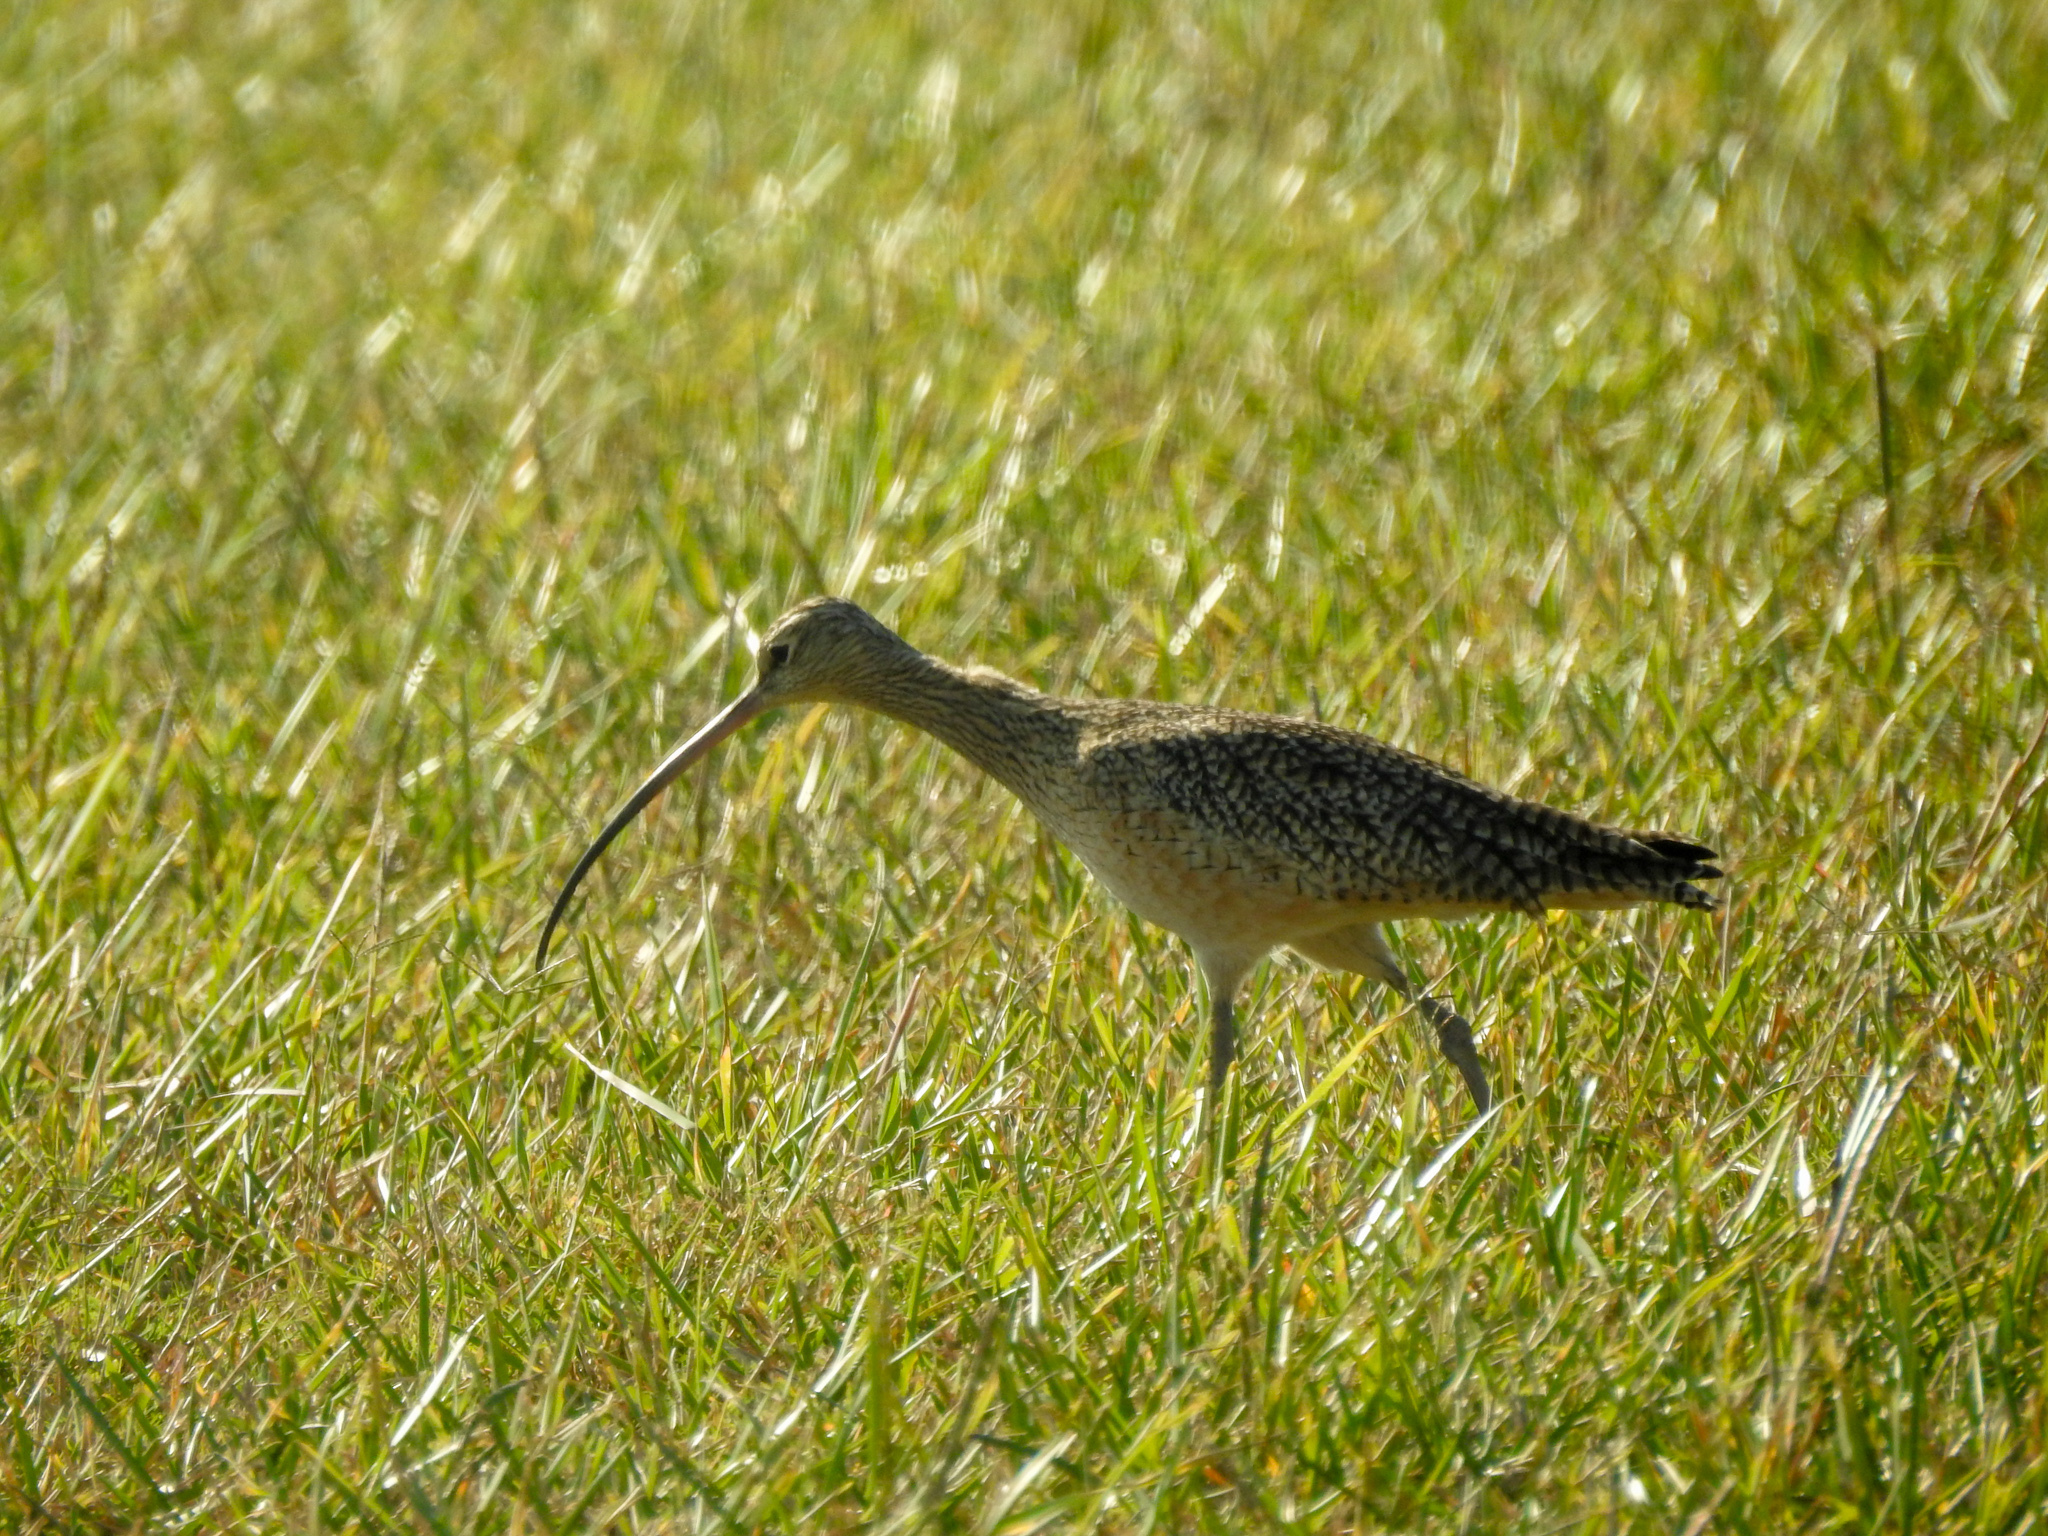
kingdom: Animalia
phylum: Chordata
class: Aves
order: Charadriiformes
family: Scolopacidae
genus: Numenius
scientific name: Numenius americanus
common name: Long-billed curlew
